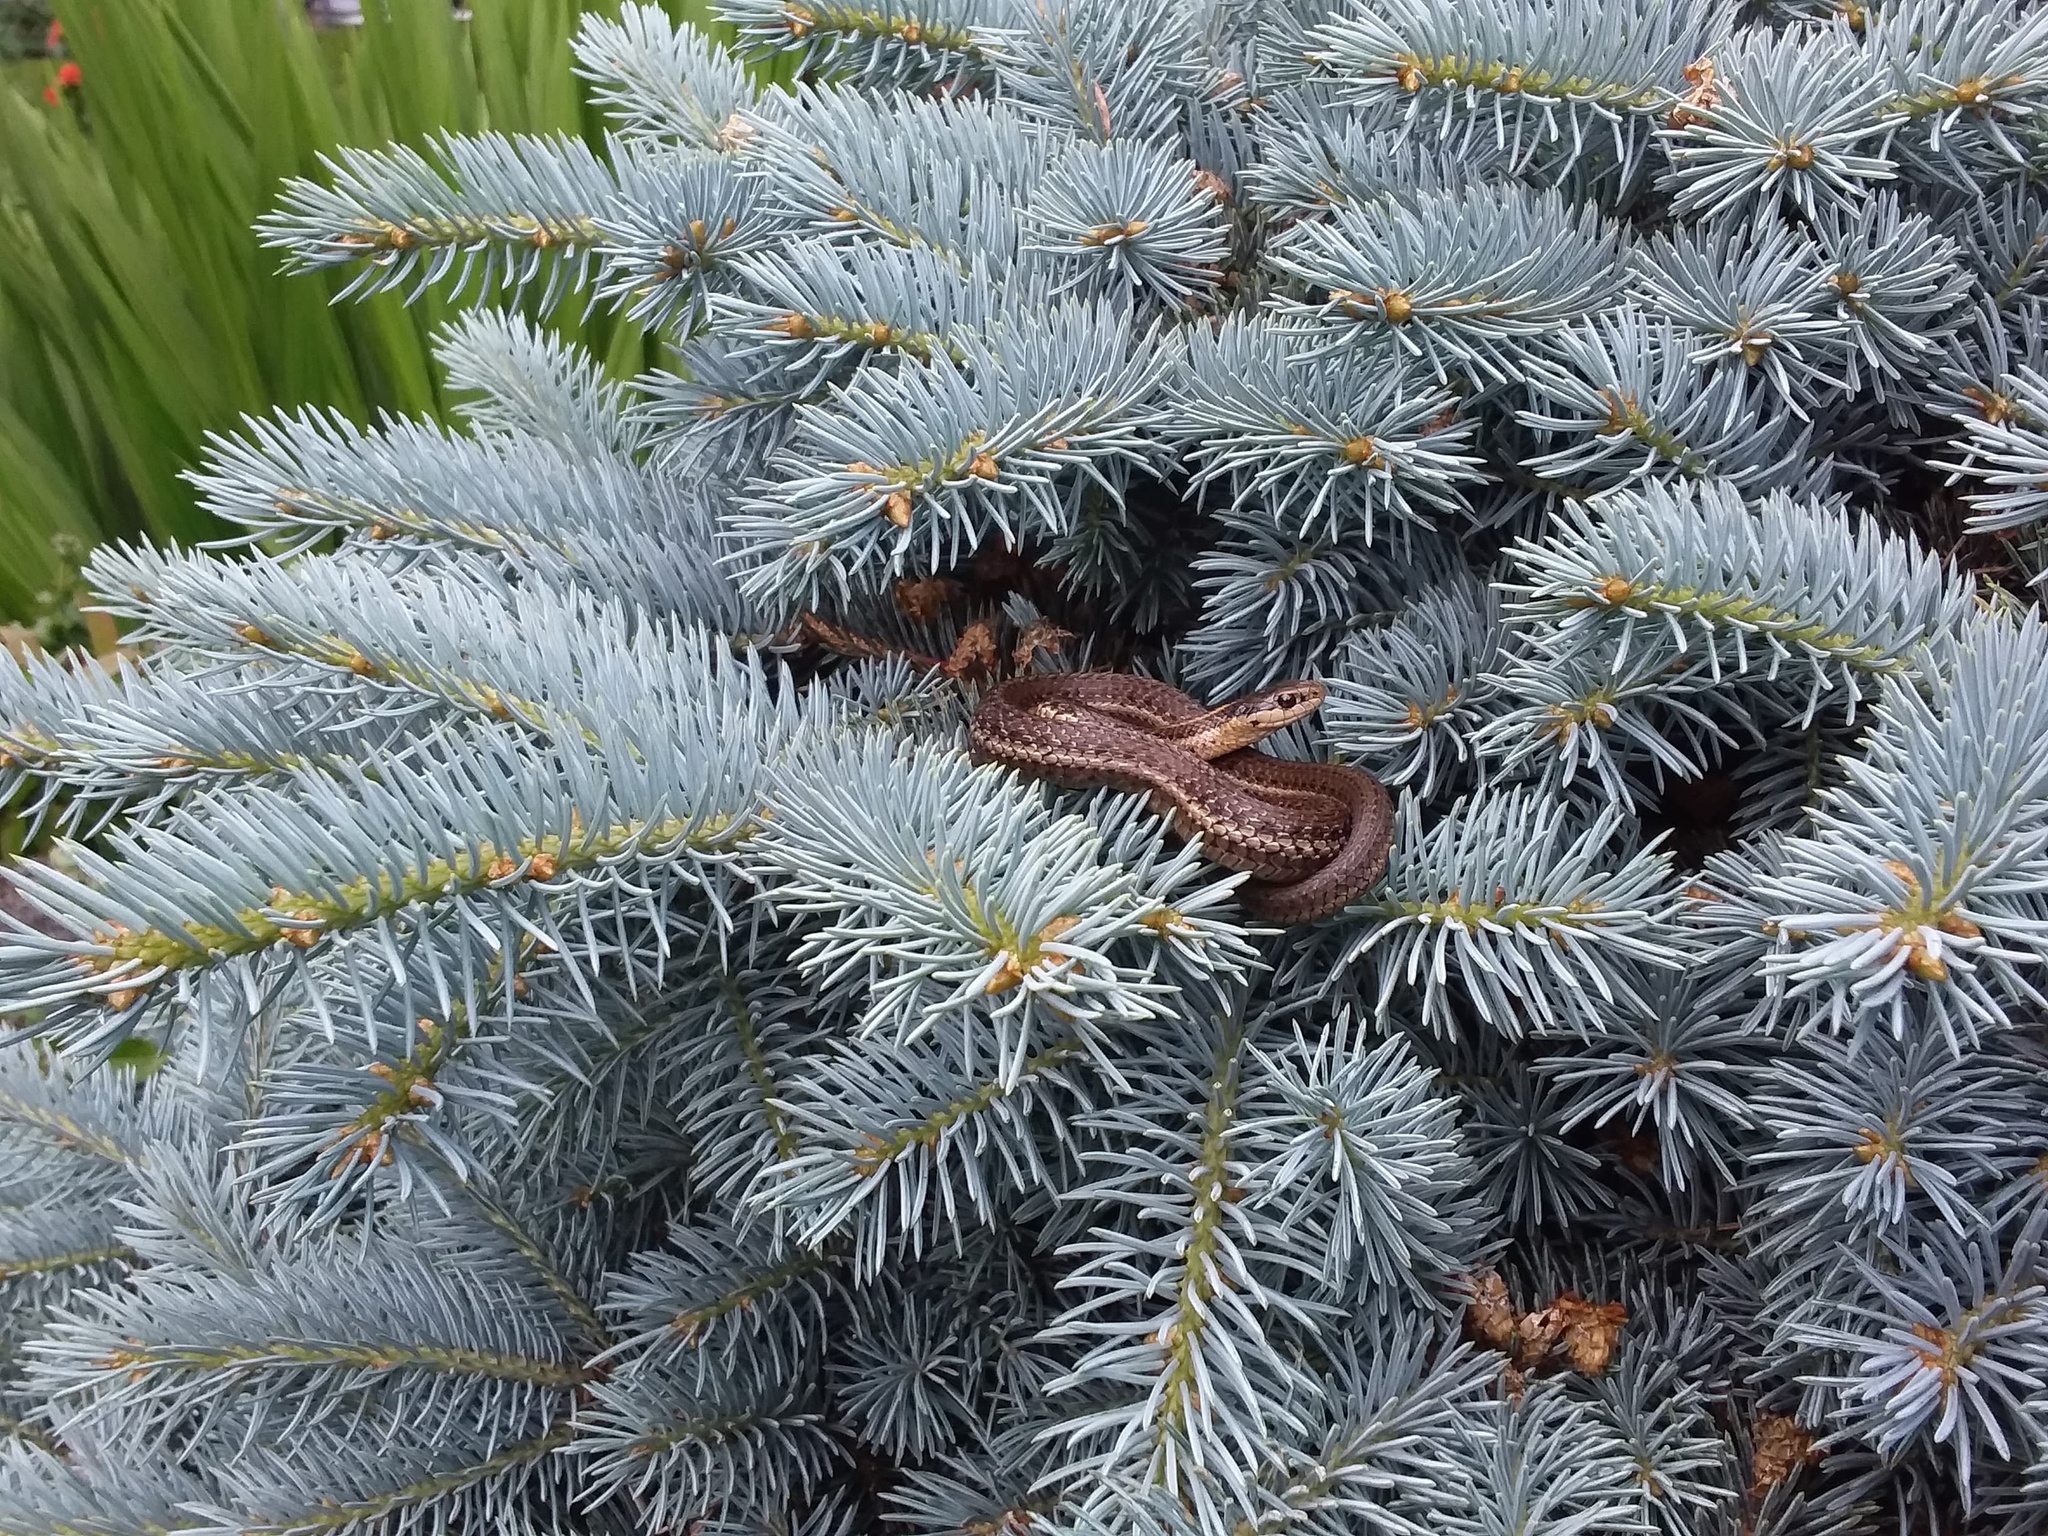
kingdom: Animalia
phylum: Chordata
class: Squamata
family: Colubridae
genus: Thamnophis
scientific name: Thamnophis ordinoides
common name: Northwestern garter snake
